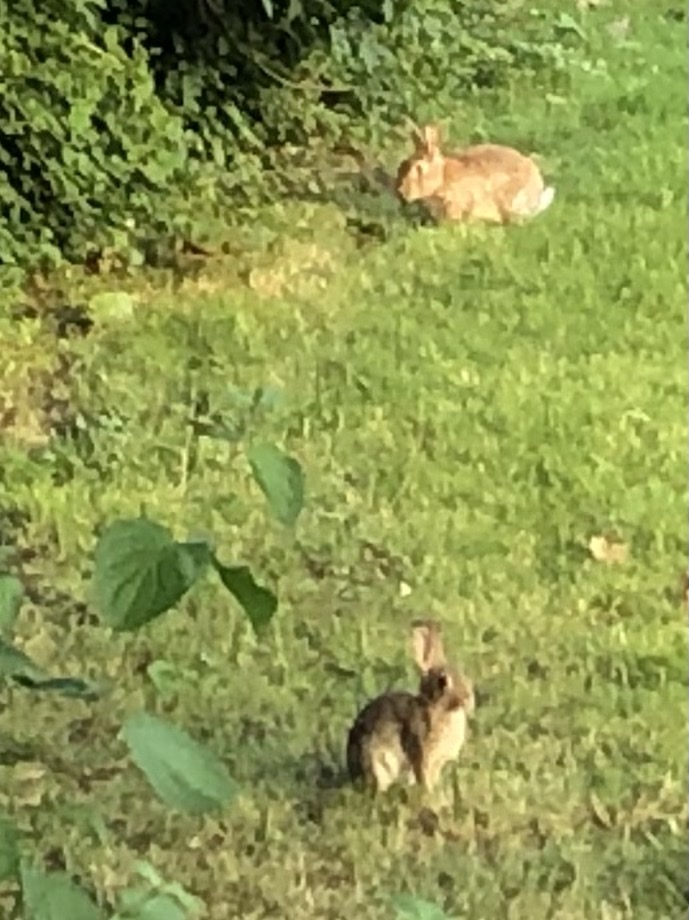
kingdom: Animalia
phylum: Chordata
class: Mammalia
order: Lagomorpha
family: Leporidae
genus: Oryctolagus
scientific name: Oryctolagus cuniculus
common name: European rabbit
